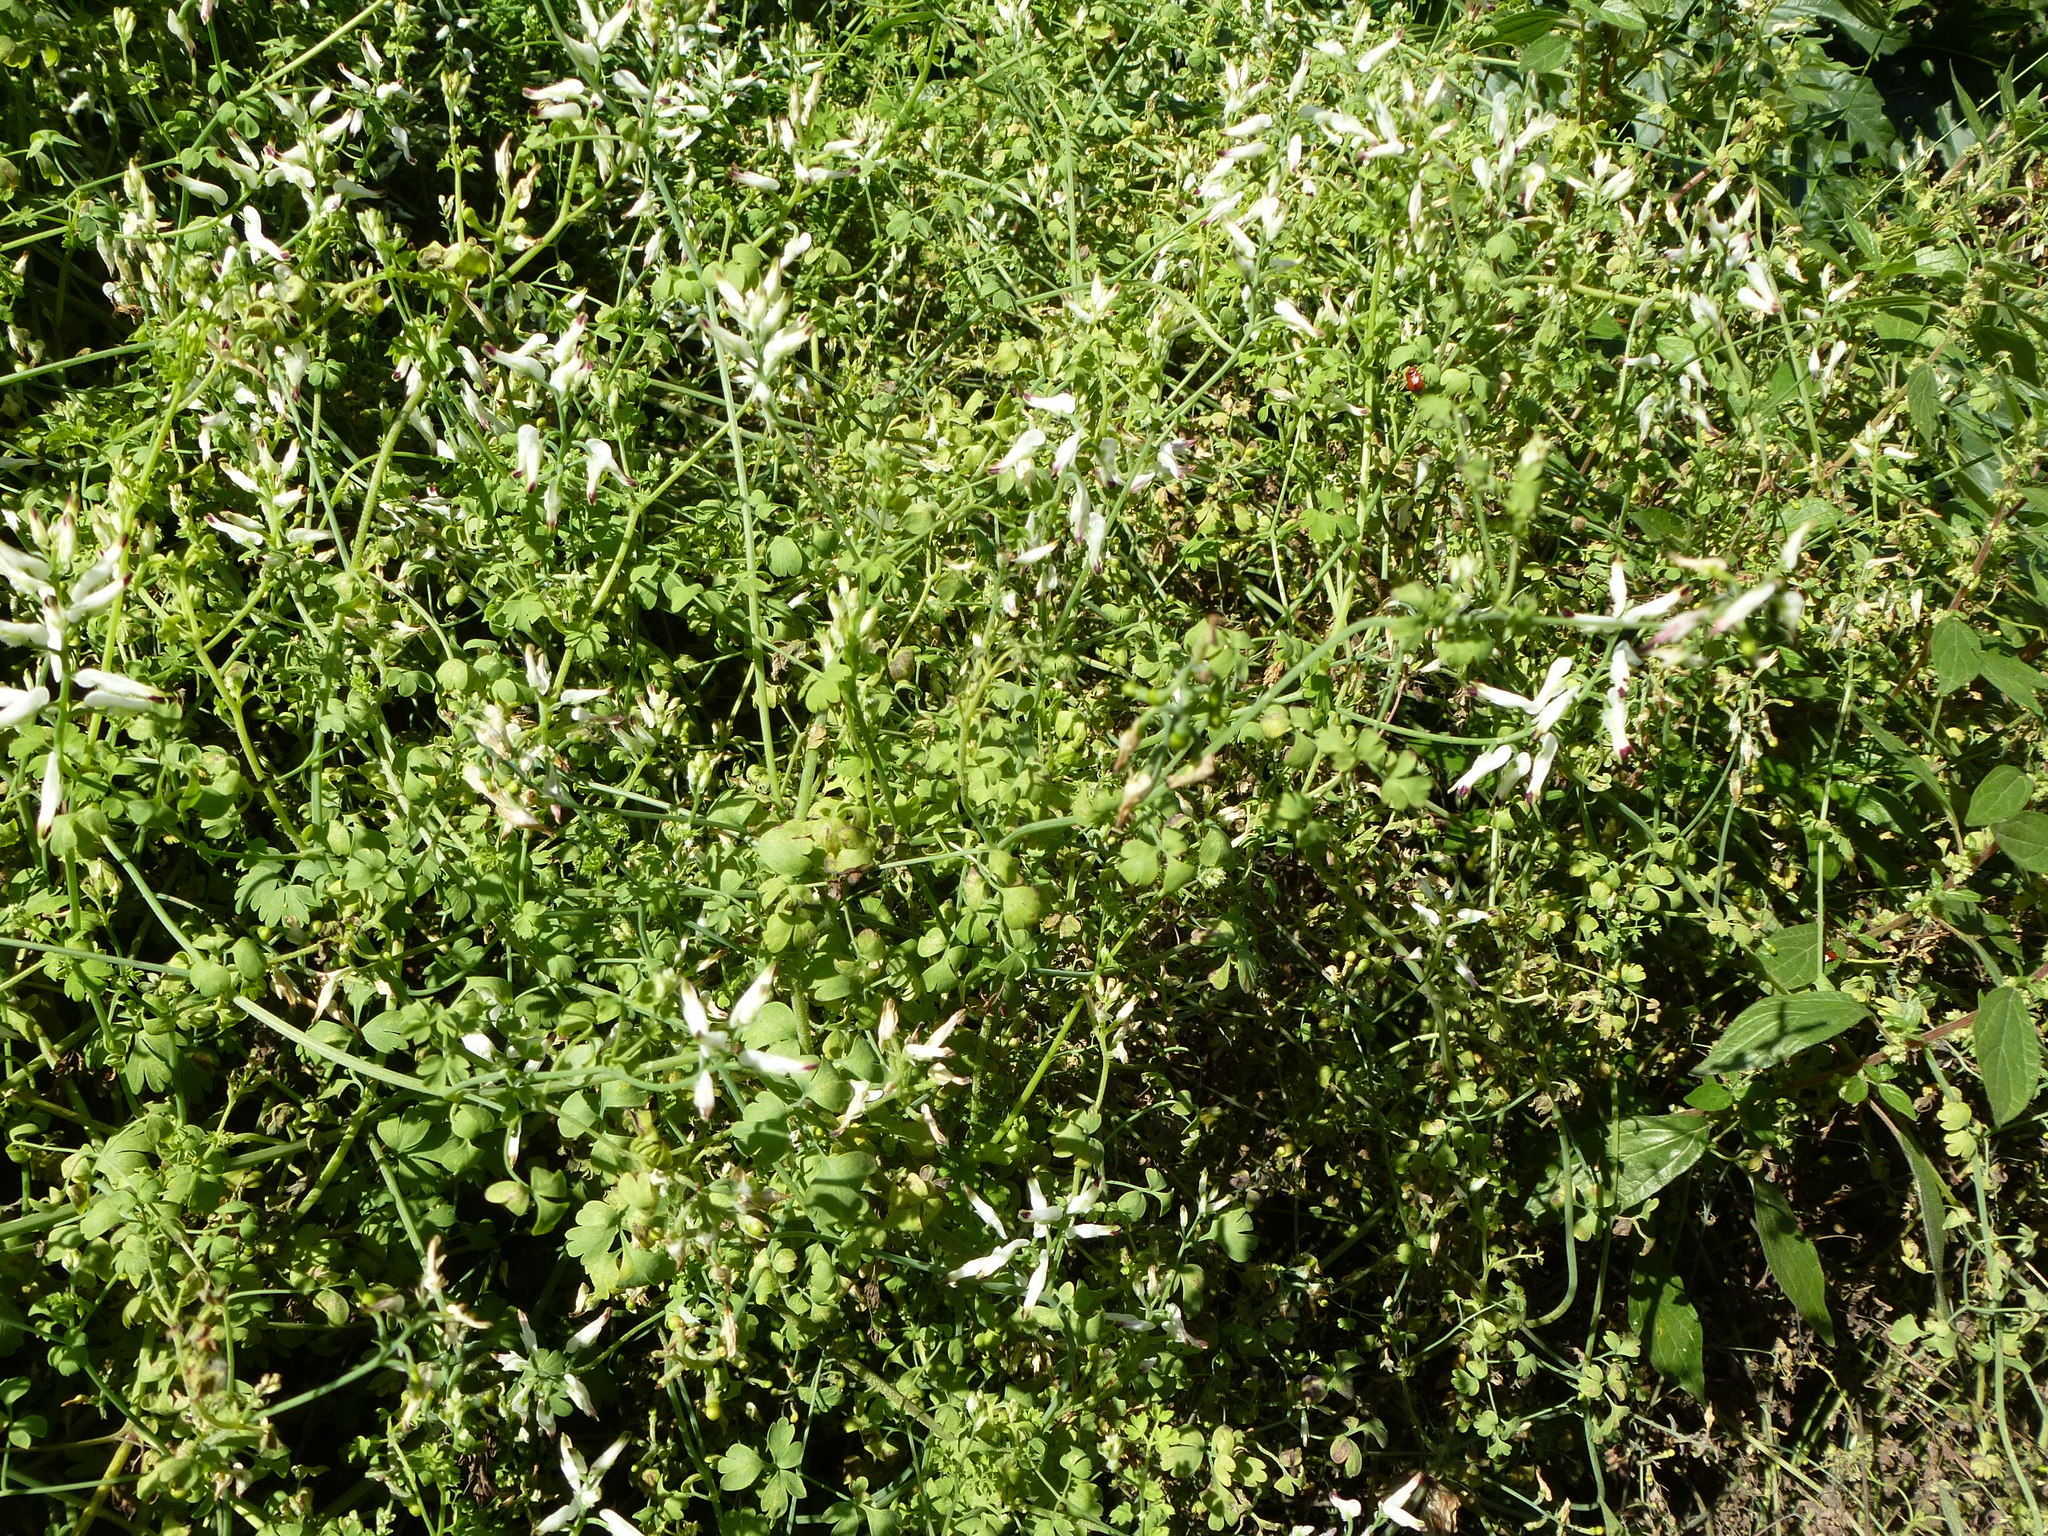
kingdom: Plantae
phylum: Tracheophyta
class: Magnoliopsida
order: Ranunculales
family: Papaveraceae
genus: Fumaria
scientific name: Fumaria capreolata
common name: White ramping-fumitory
